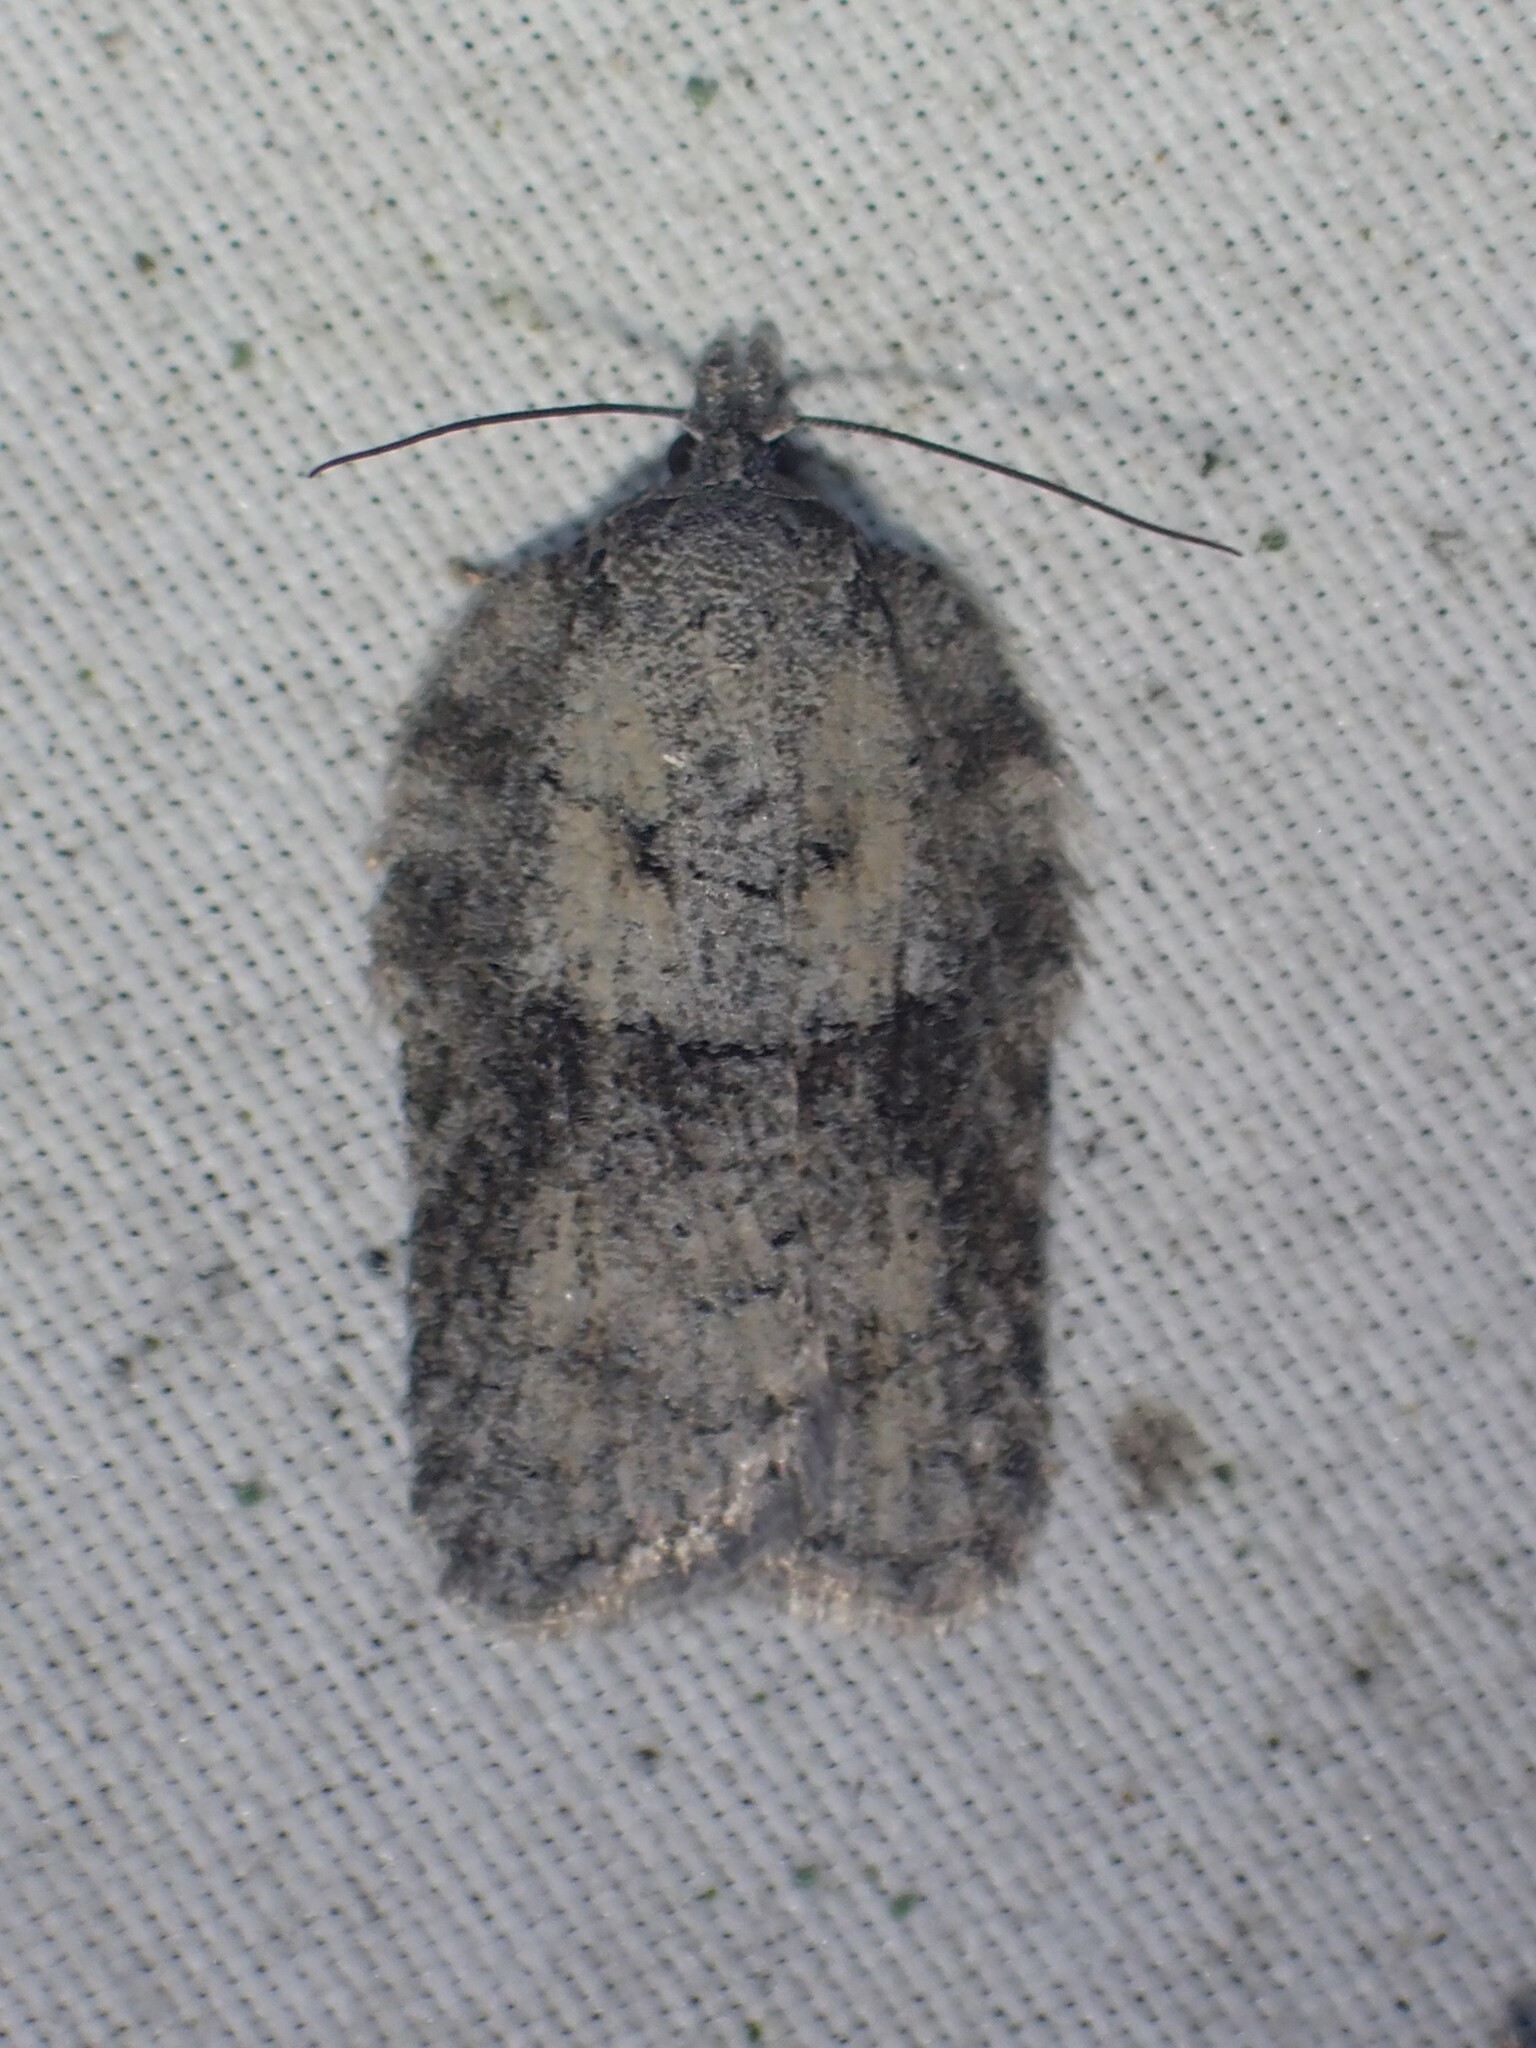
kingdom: Animalia
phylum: Arthropoda
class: Insecta
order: Lepidoptera
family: Tortricidae
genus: Acleris
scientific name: Acleris nigrolinea
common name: Black-lined acleris
